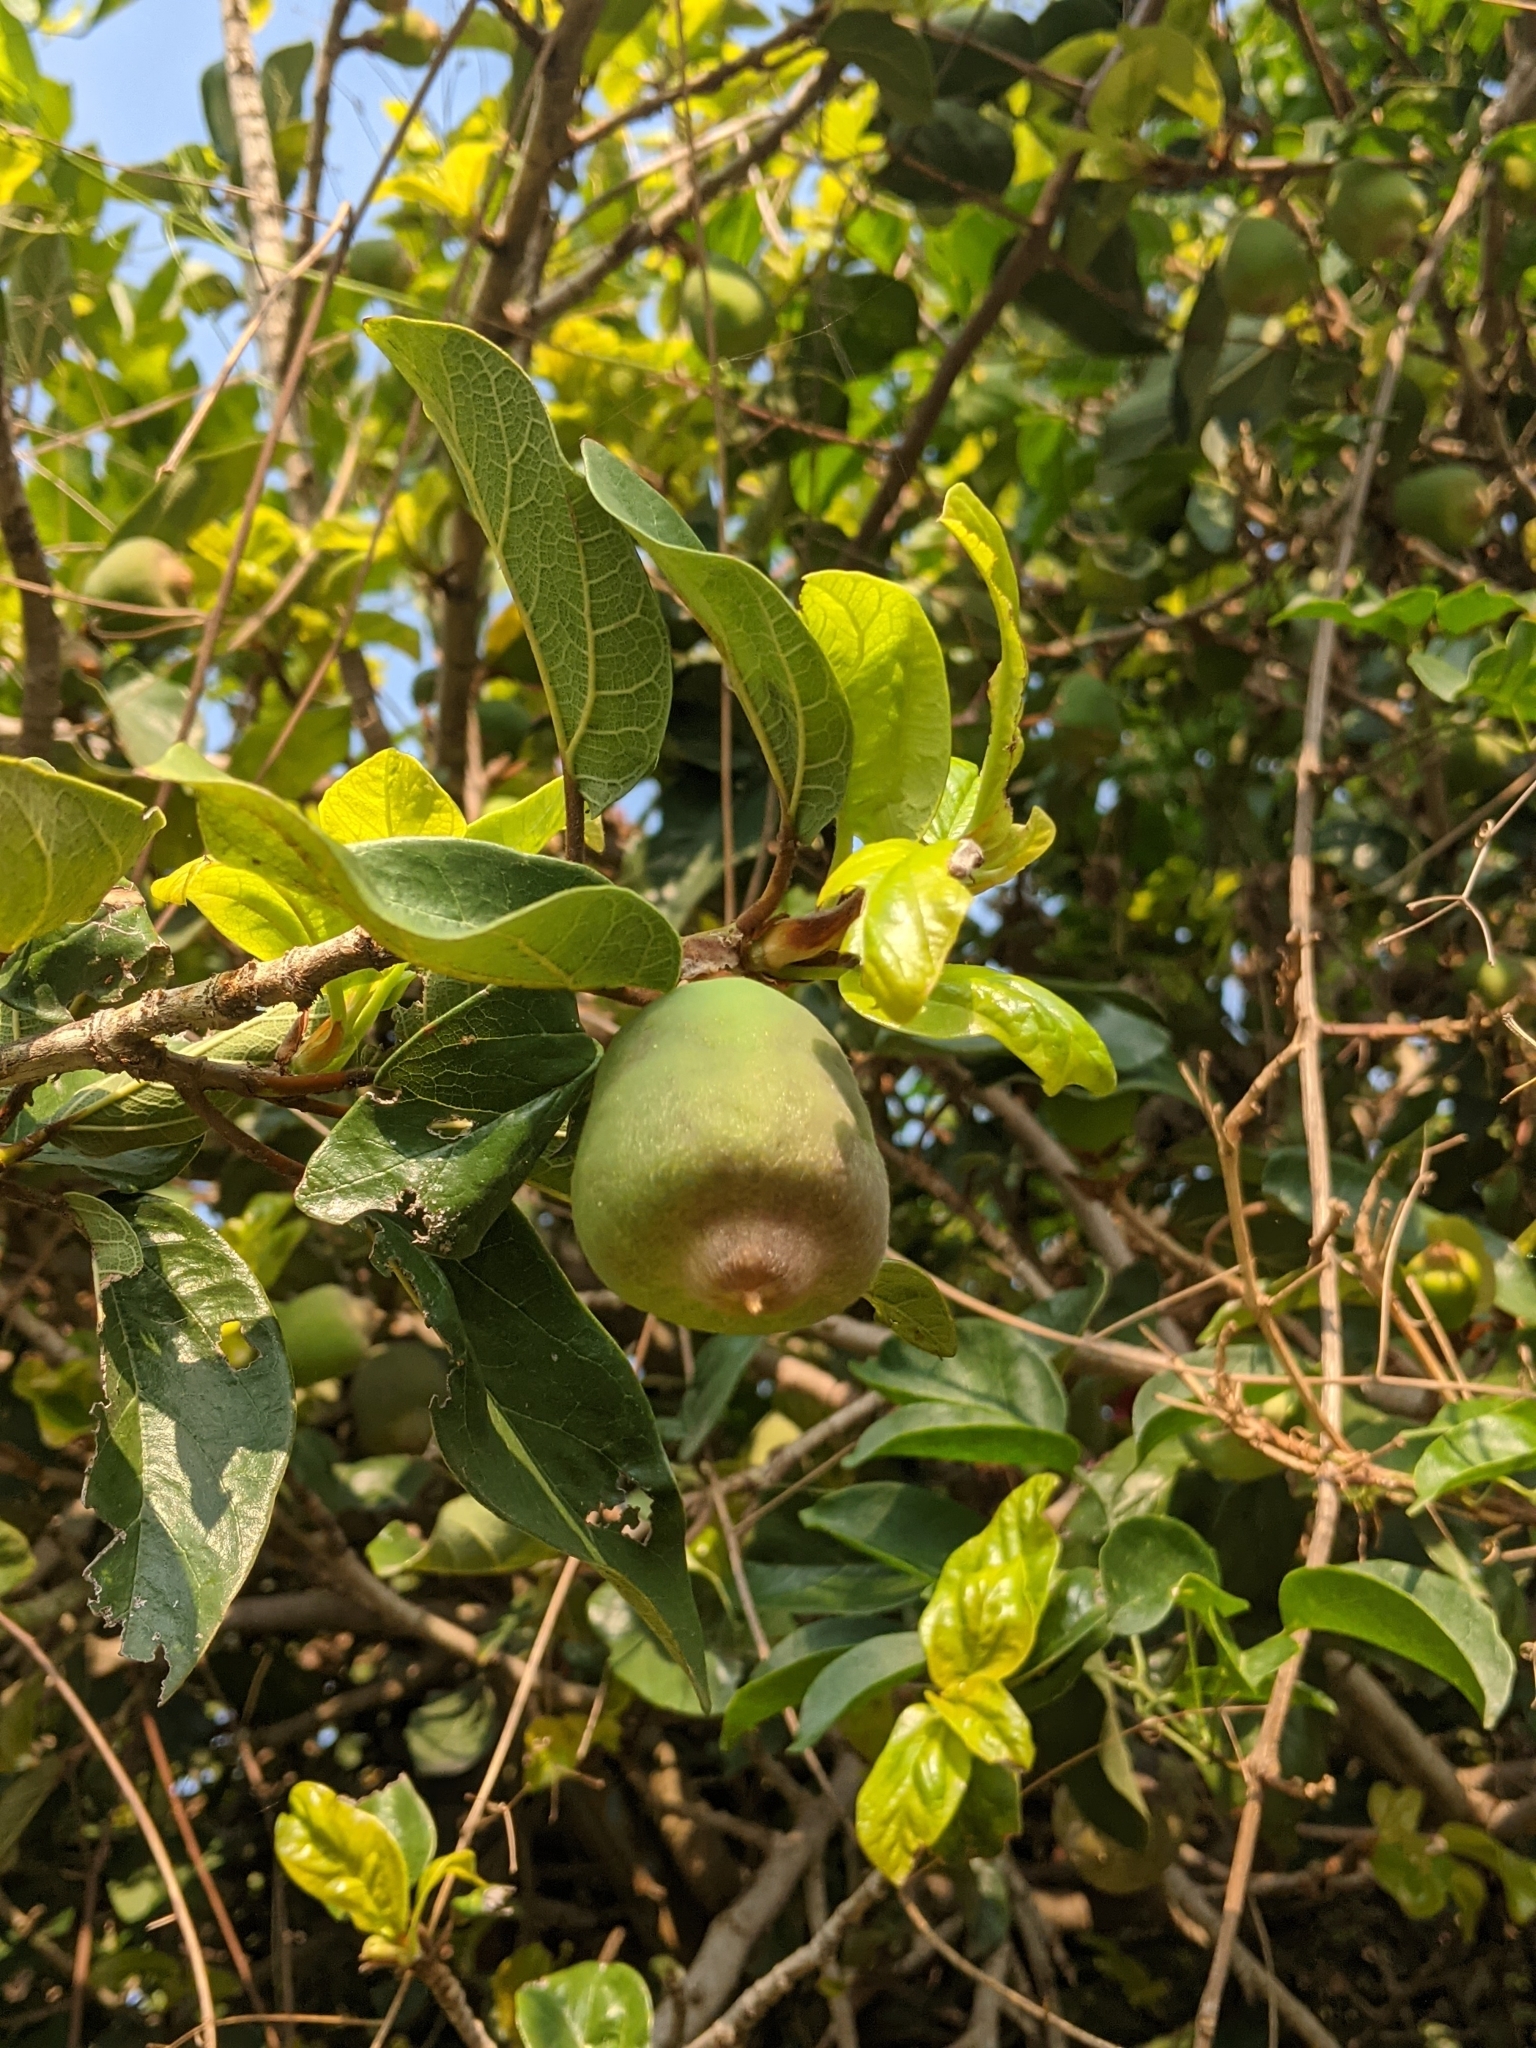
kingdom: Plantae
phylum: Tracheophyta
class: Magnoliopsida
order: Rosales
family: Moraceae
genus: Ficus
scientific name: Ficus pumila
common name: Climbingfig
